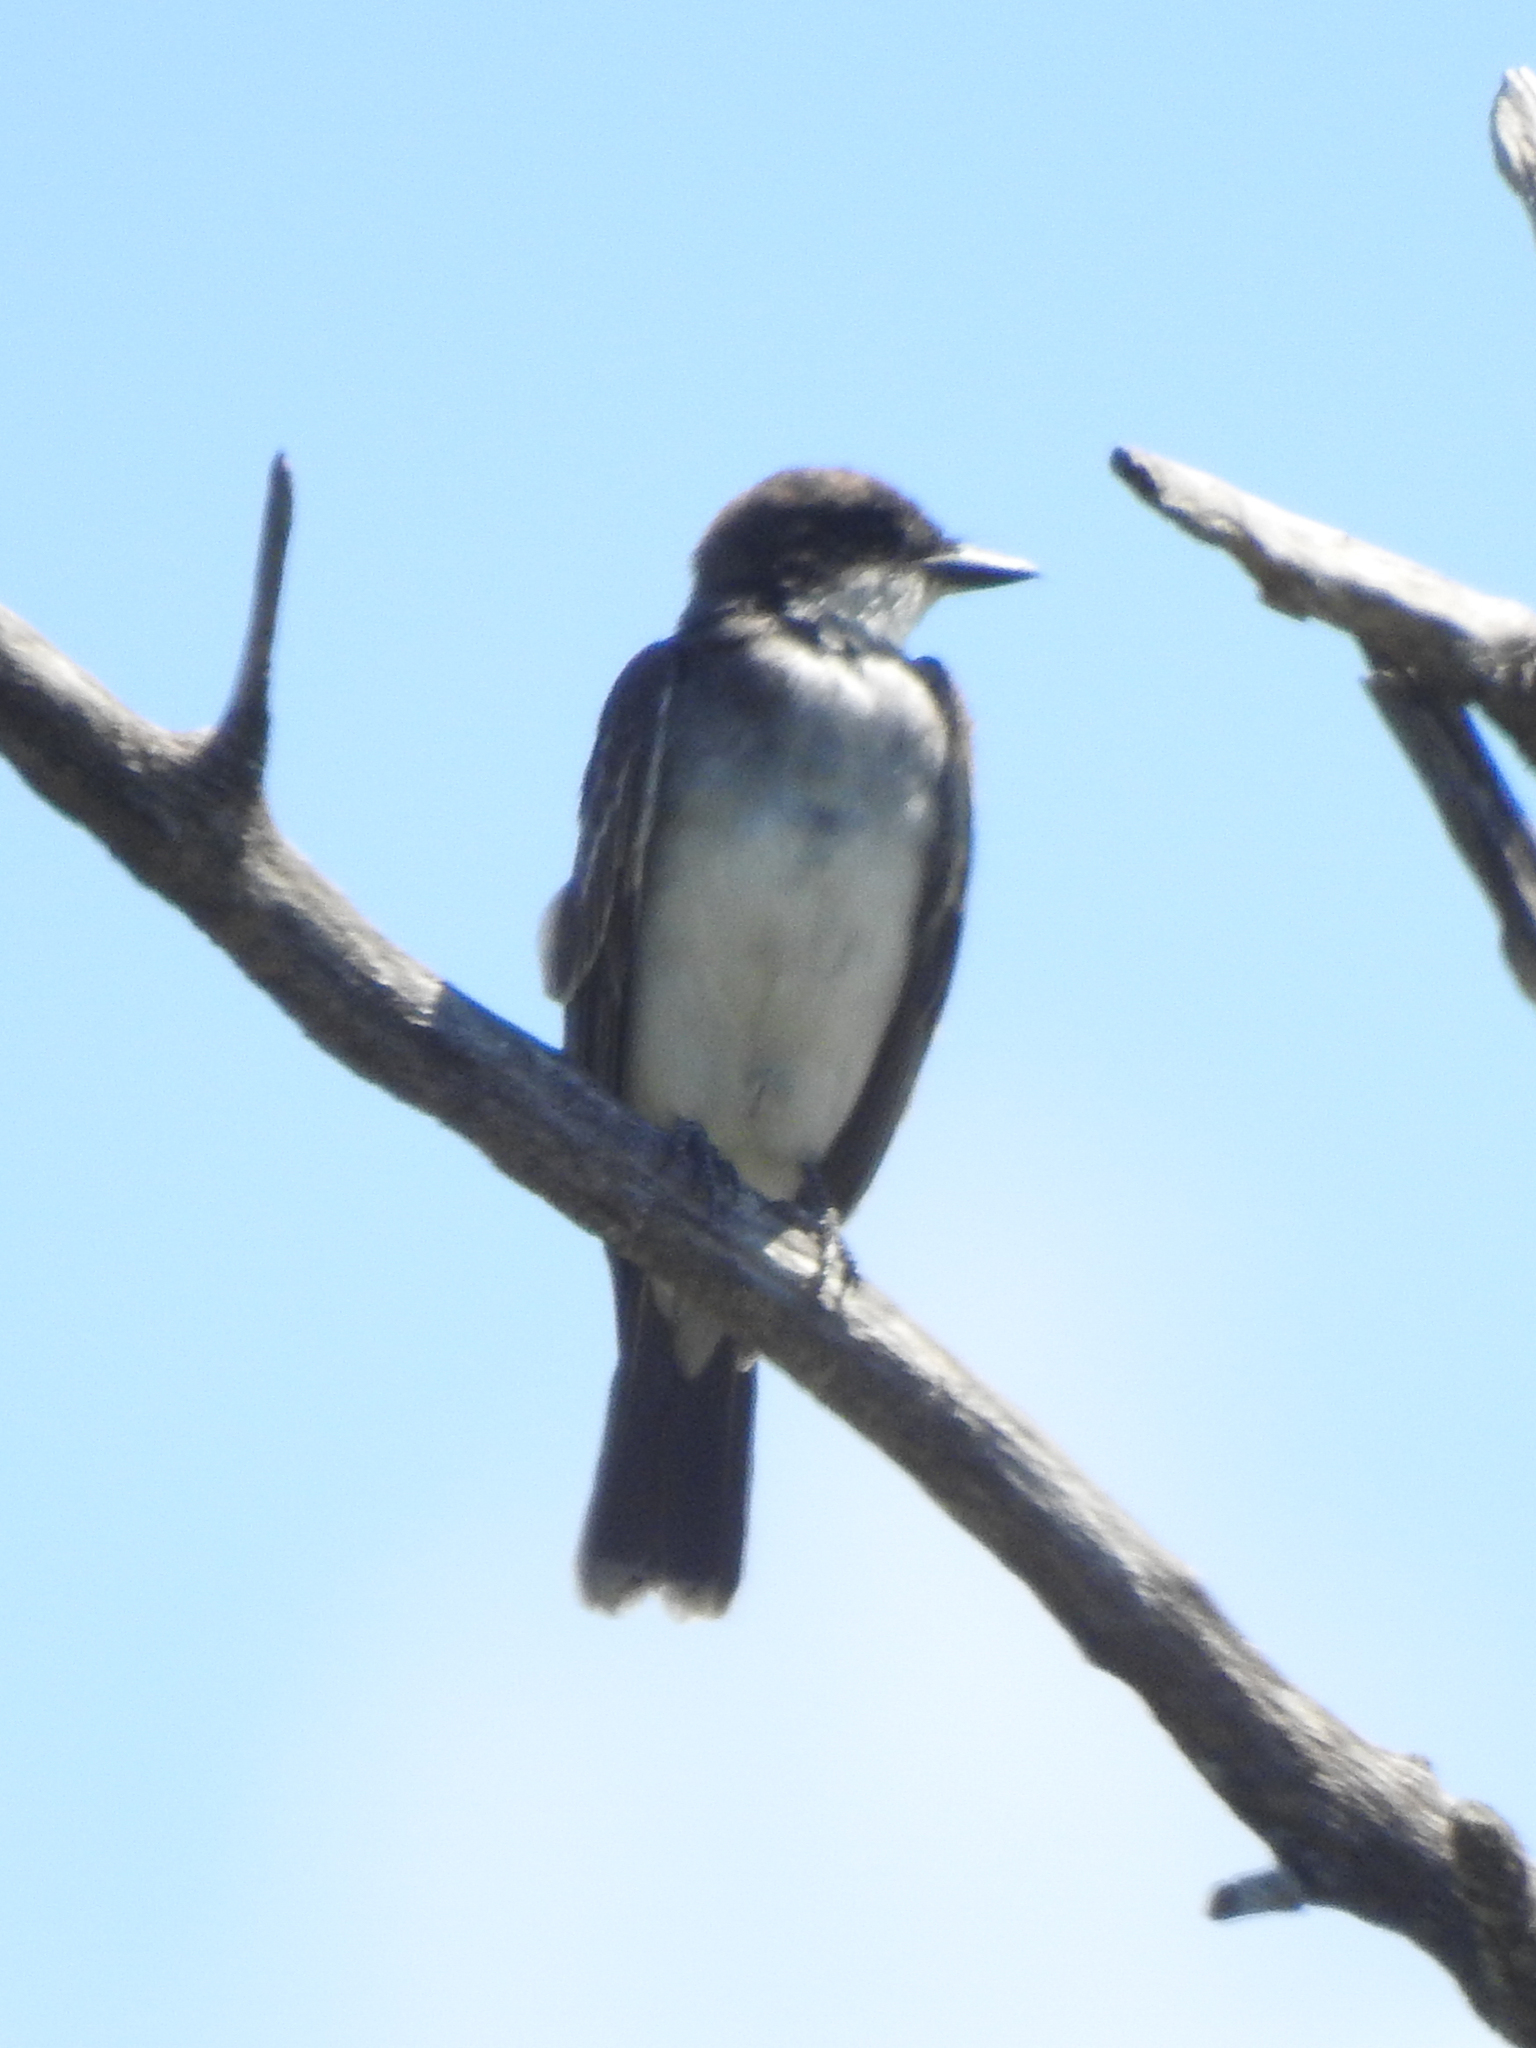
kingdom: Animalia
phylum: Chordata
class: Aves
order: Passeriformes
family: Tyrannidae
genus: Tyrannus
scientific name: Tyrannus tyrannus
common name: Eastern kingbird
